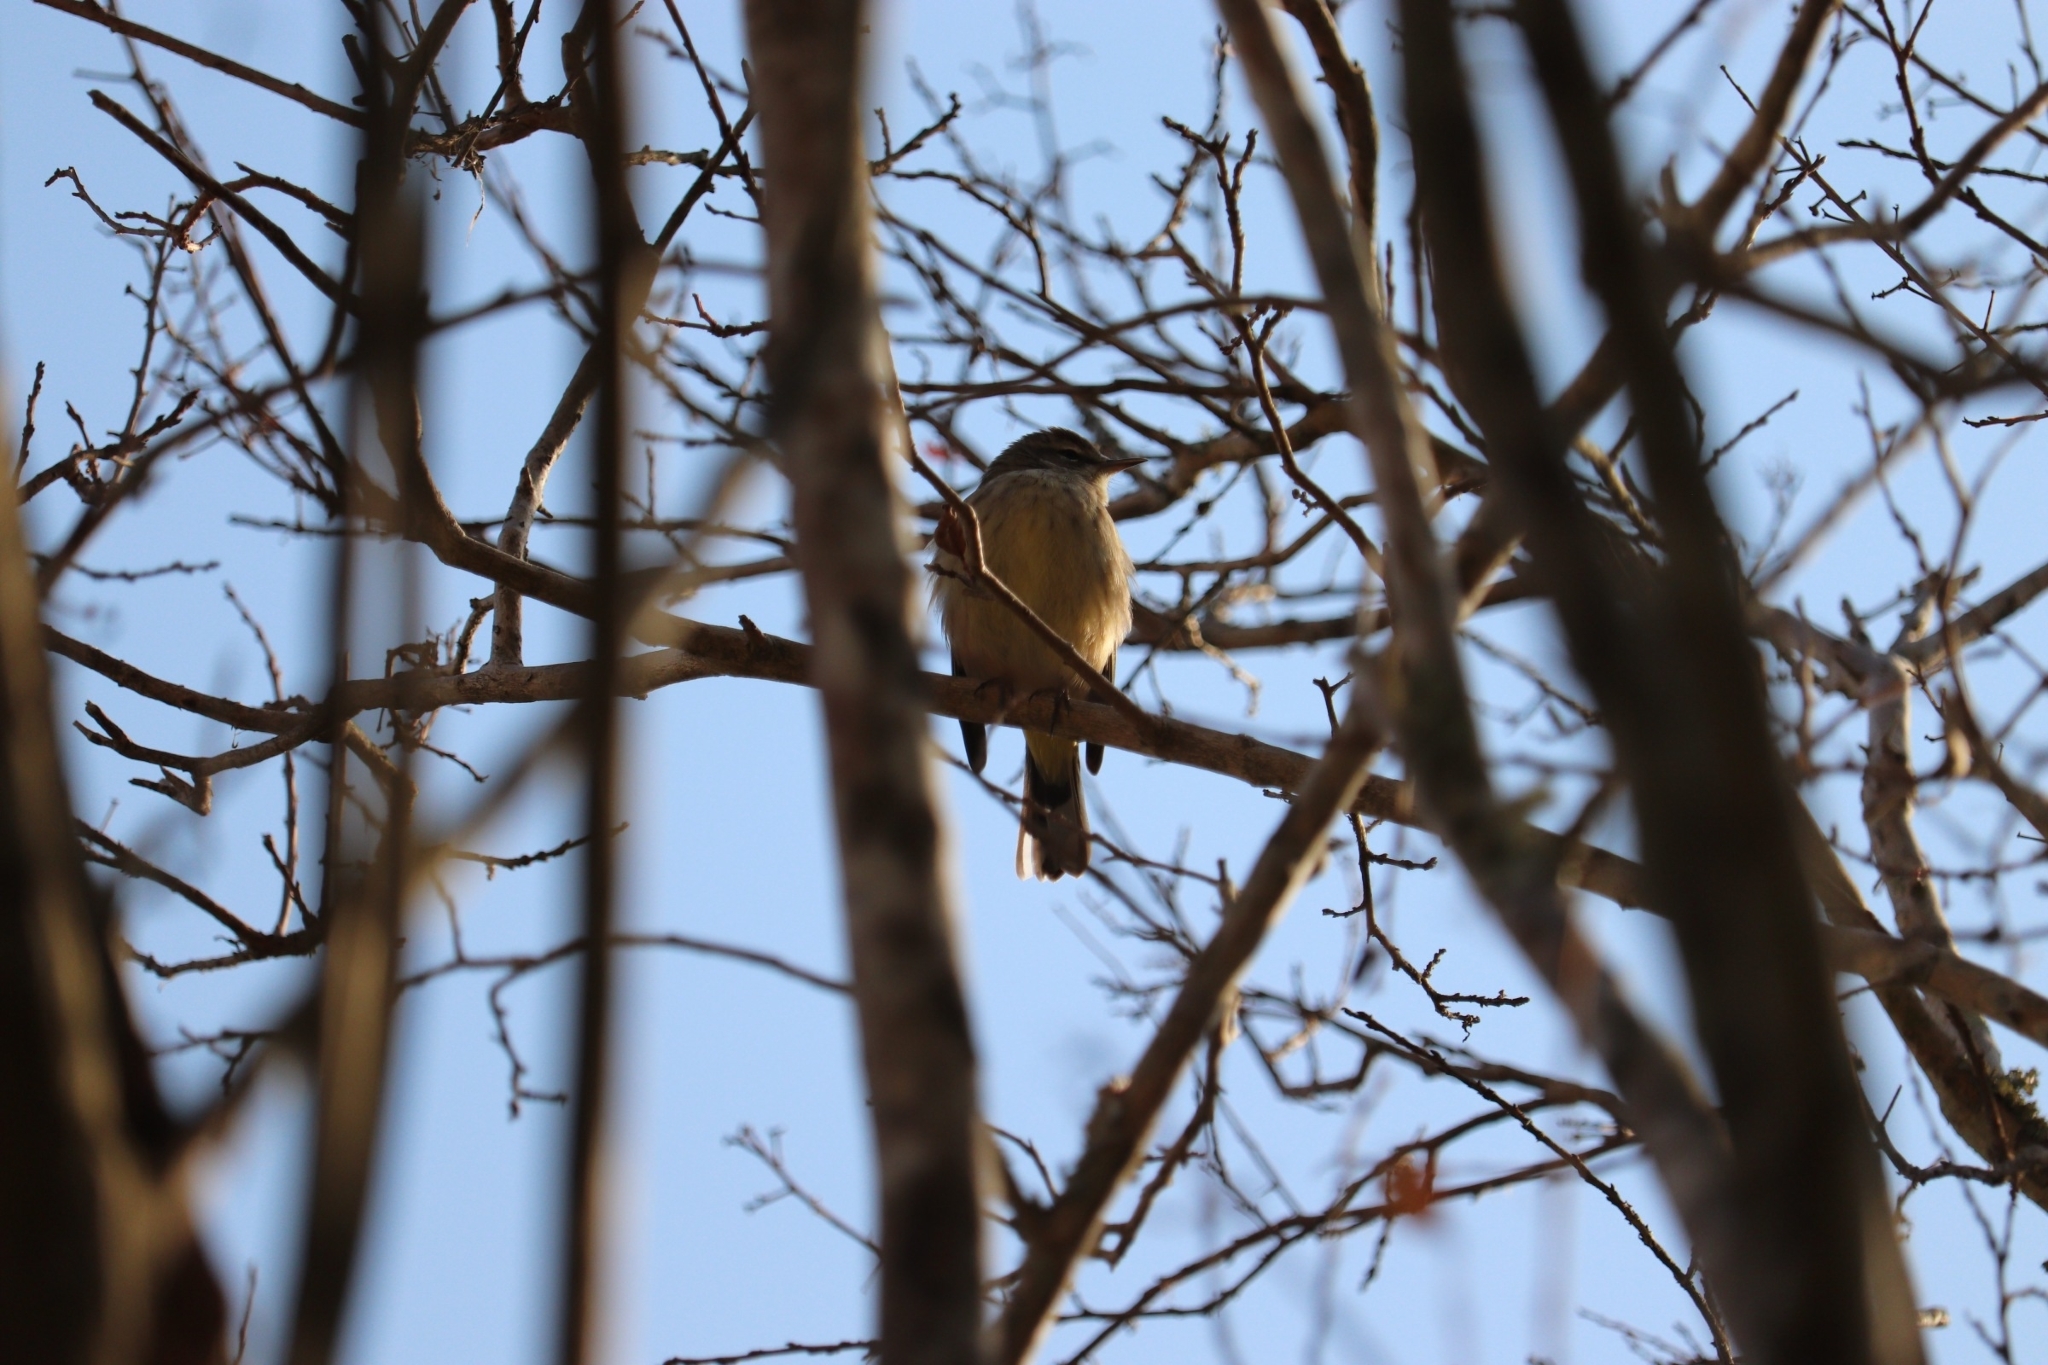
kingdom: Animalia
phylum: Chordata
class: Aves
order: Passeriformes
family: Parulidae
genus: Setophaga
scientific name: Setophaga palmarum
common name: Palm warbler
